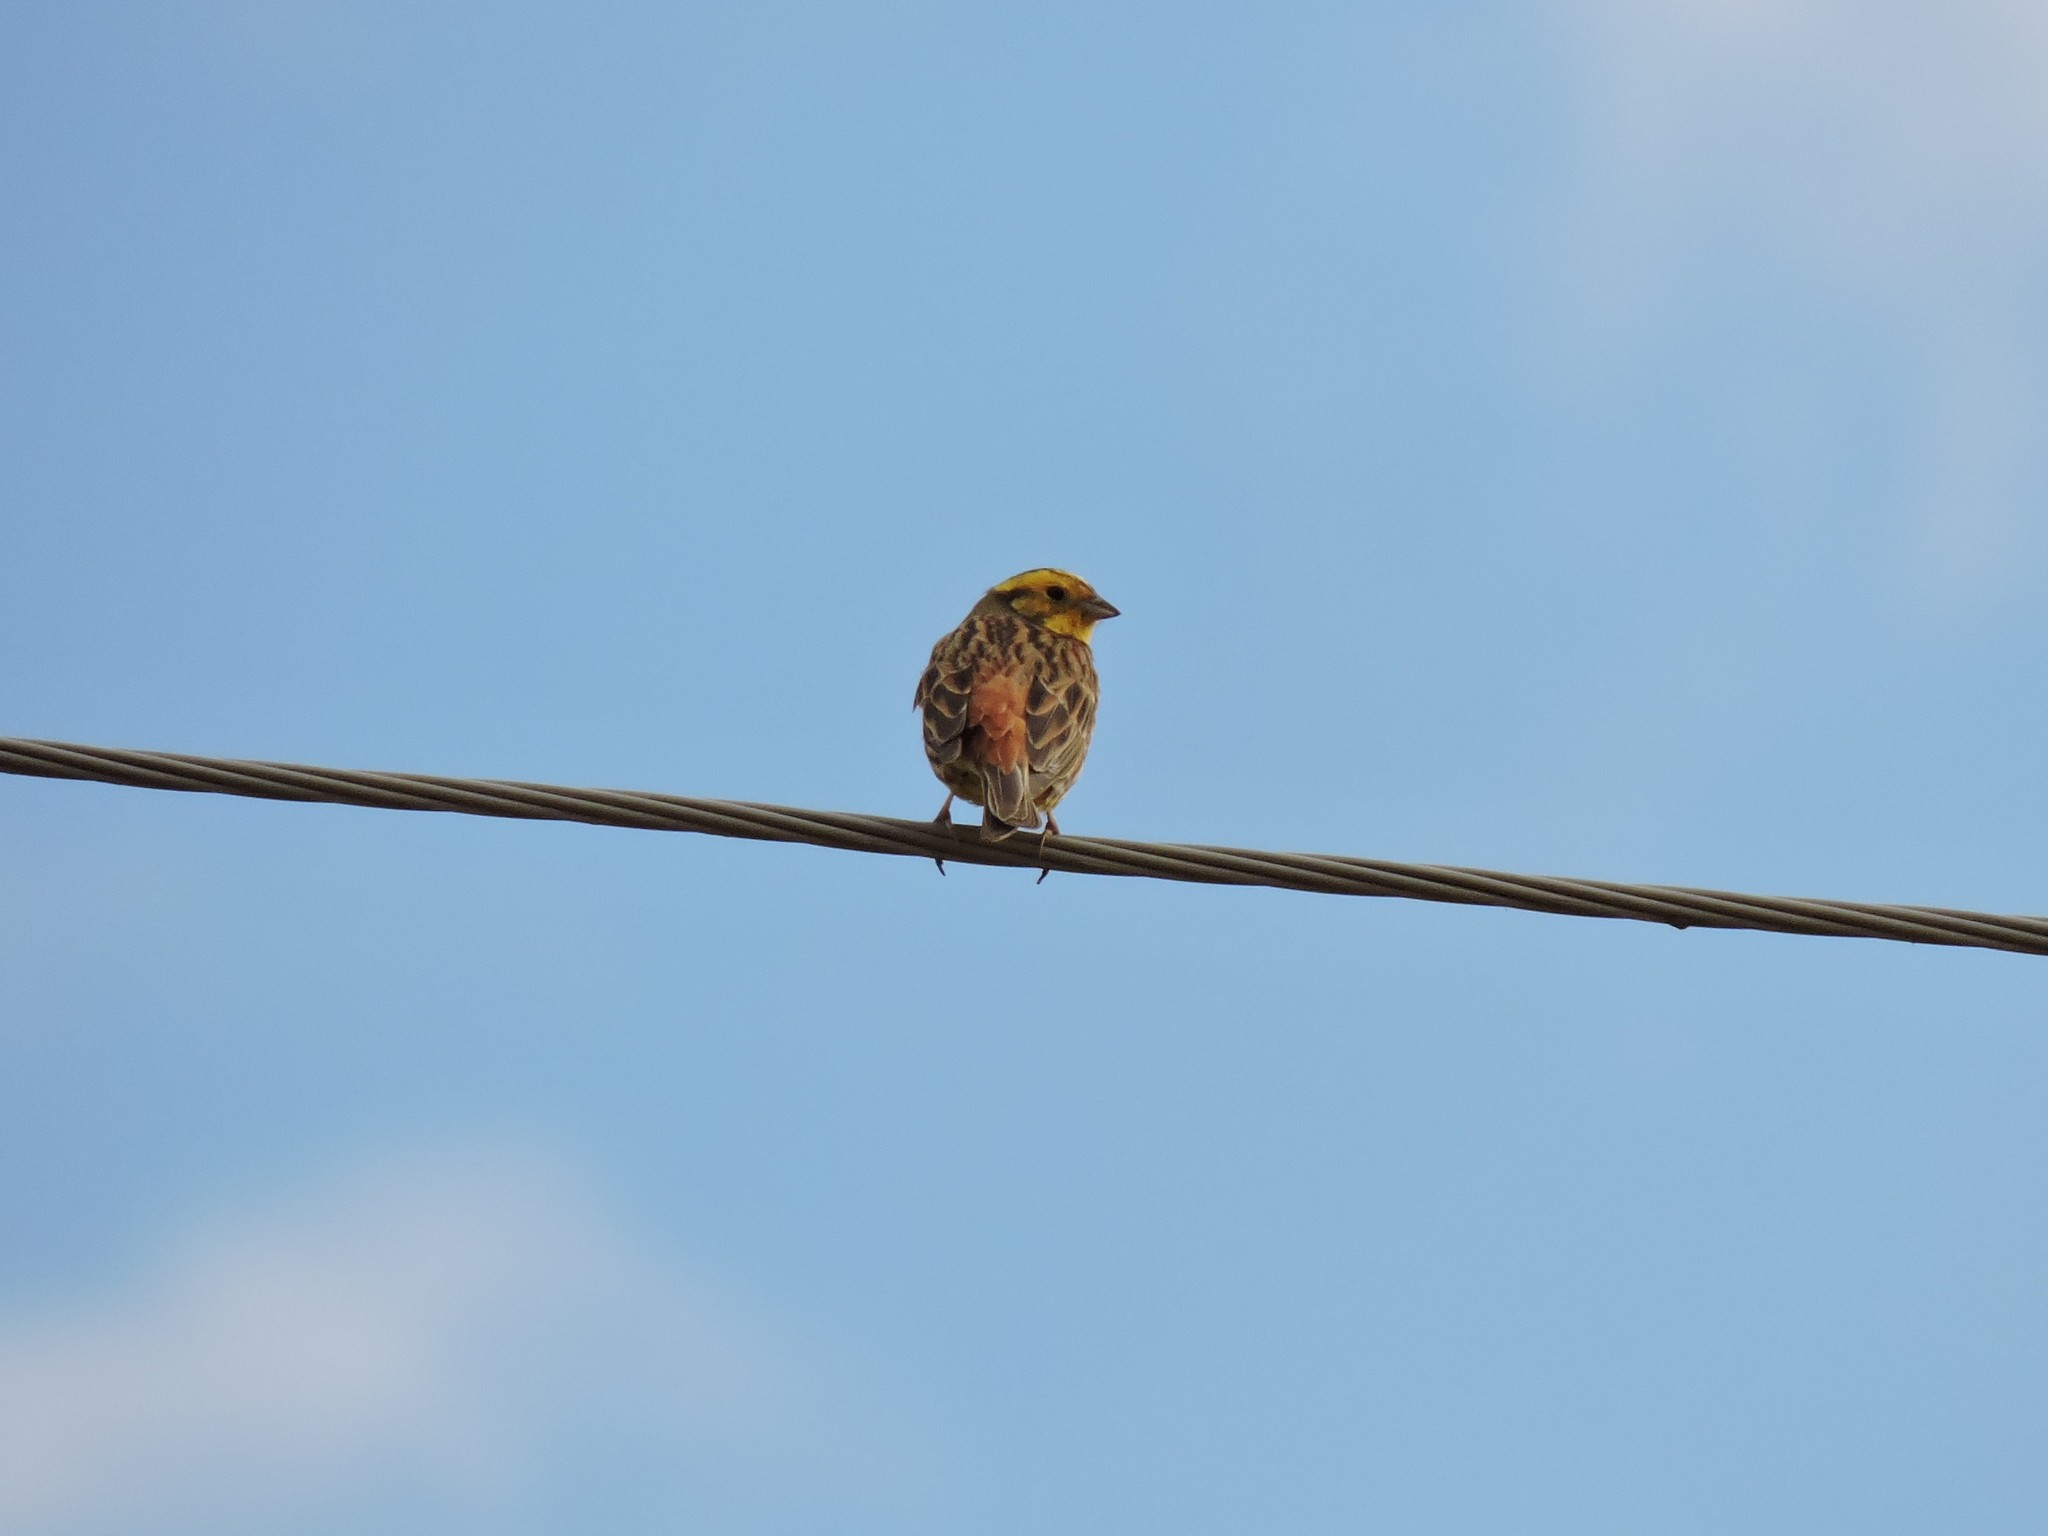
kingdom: Animalia
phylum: Chordata
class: Aves
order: Passeriformes
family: Emberizidae
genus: Emberiza
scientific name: Emberiza citrinella
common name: Yellowhammer
